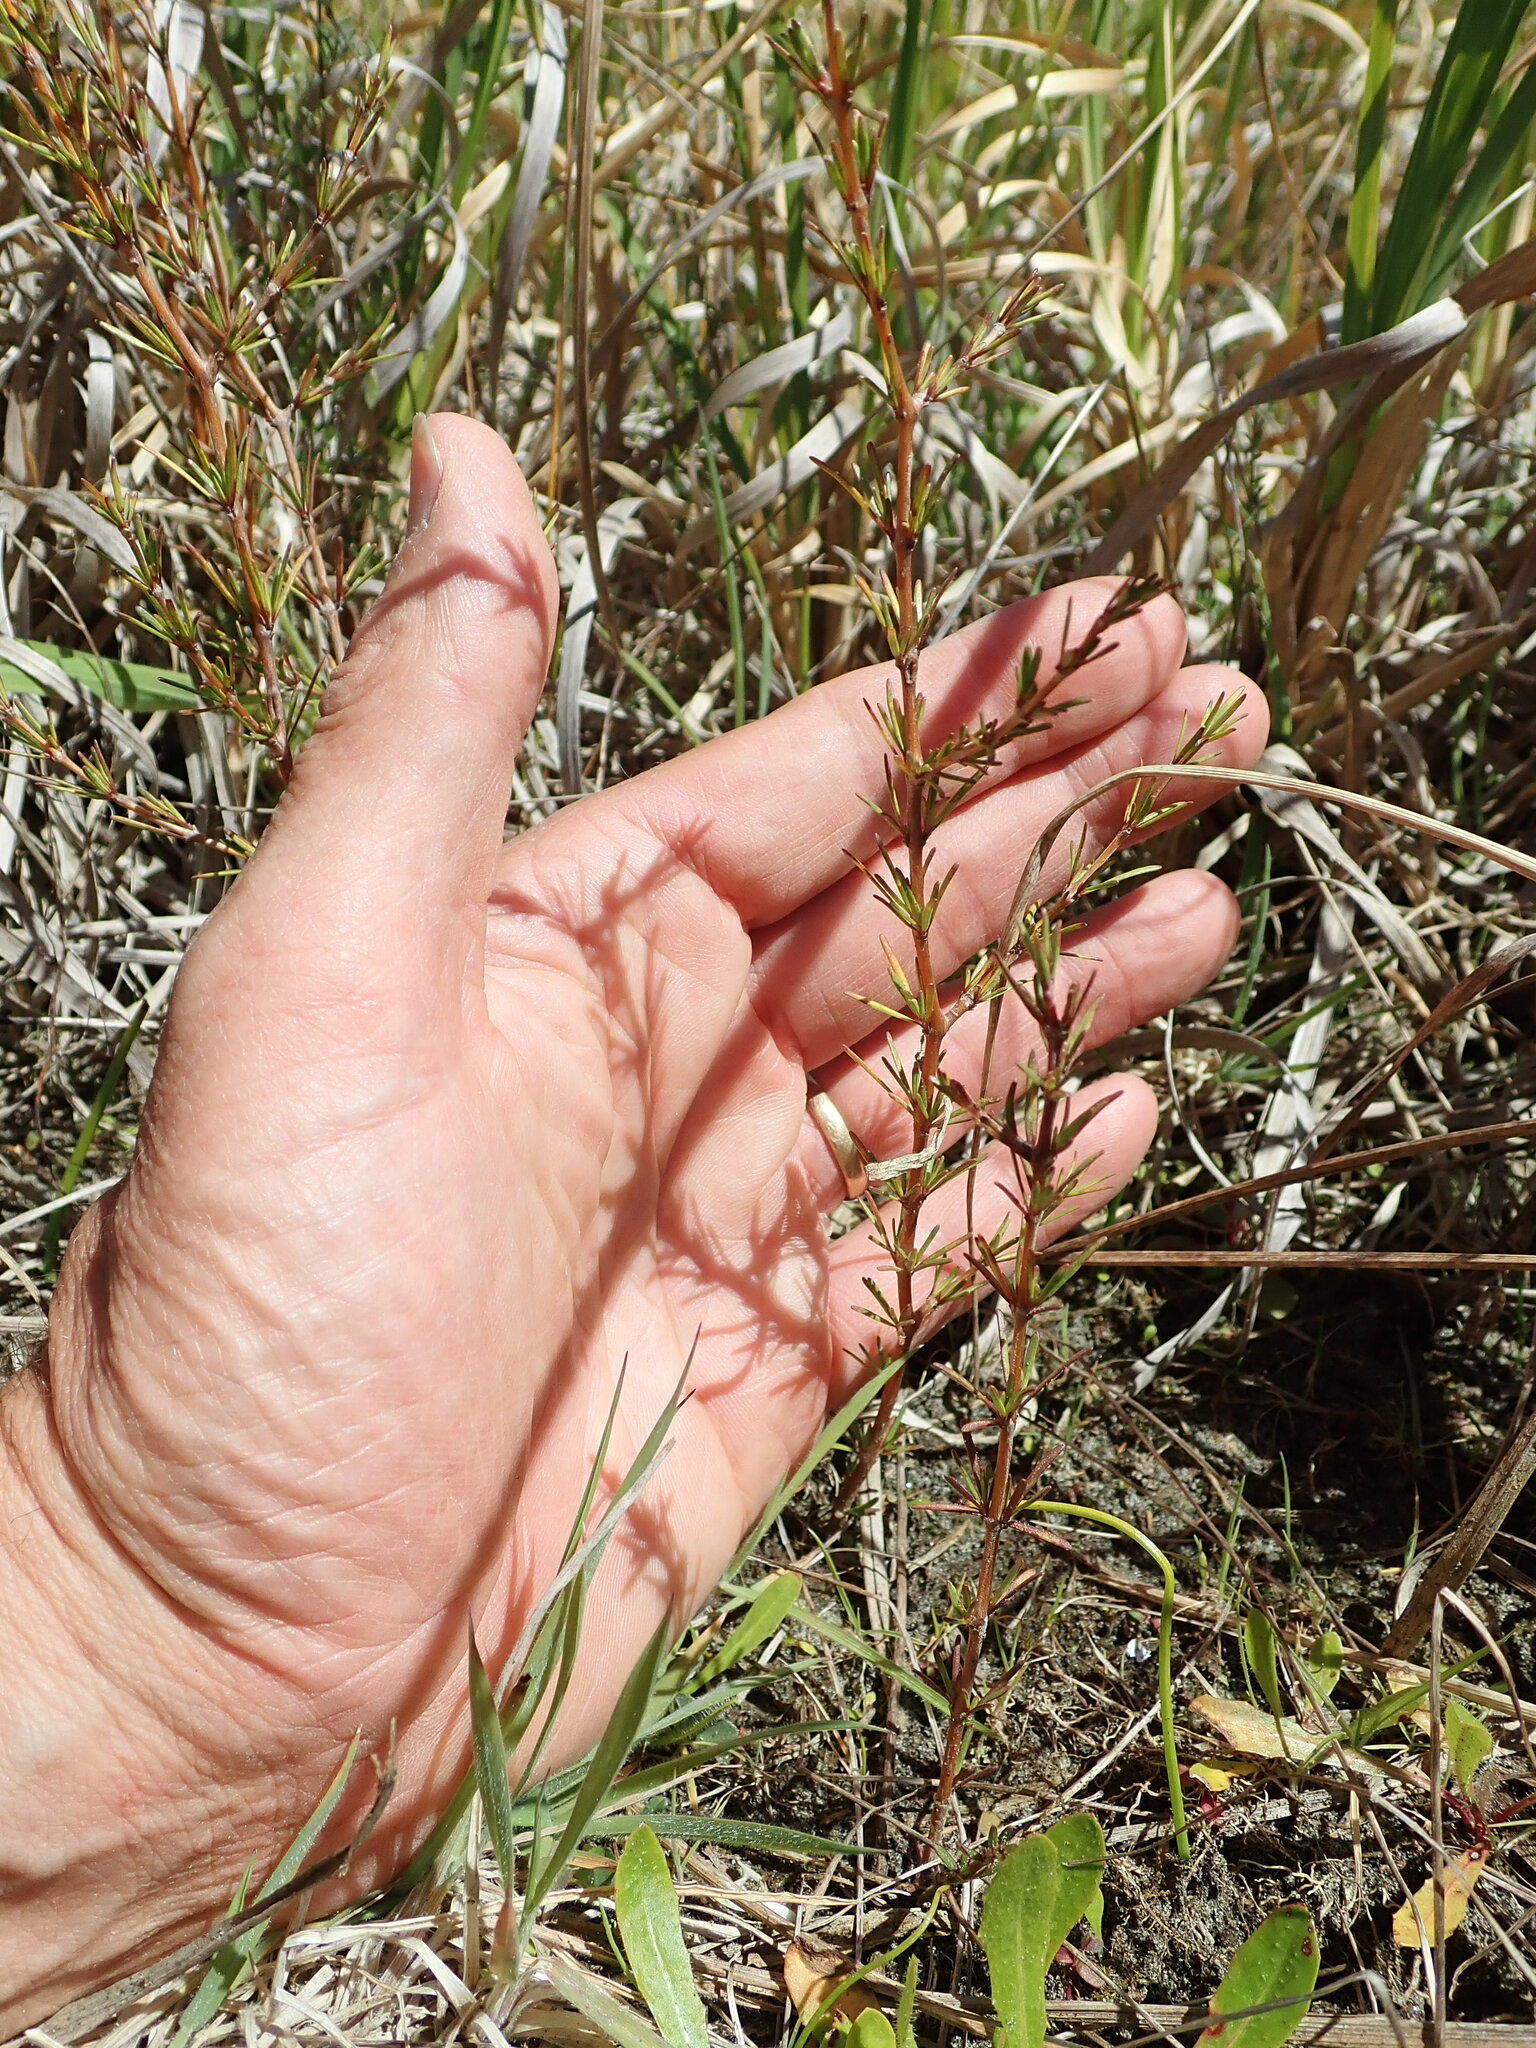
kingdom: Plantae
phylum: Tracheophyta
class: Magnoliopsida
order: Gentianales
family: Rubiaceae
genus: Coprosma
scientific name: Coprosma acerosa
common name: Sand coprosma
